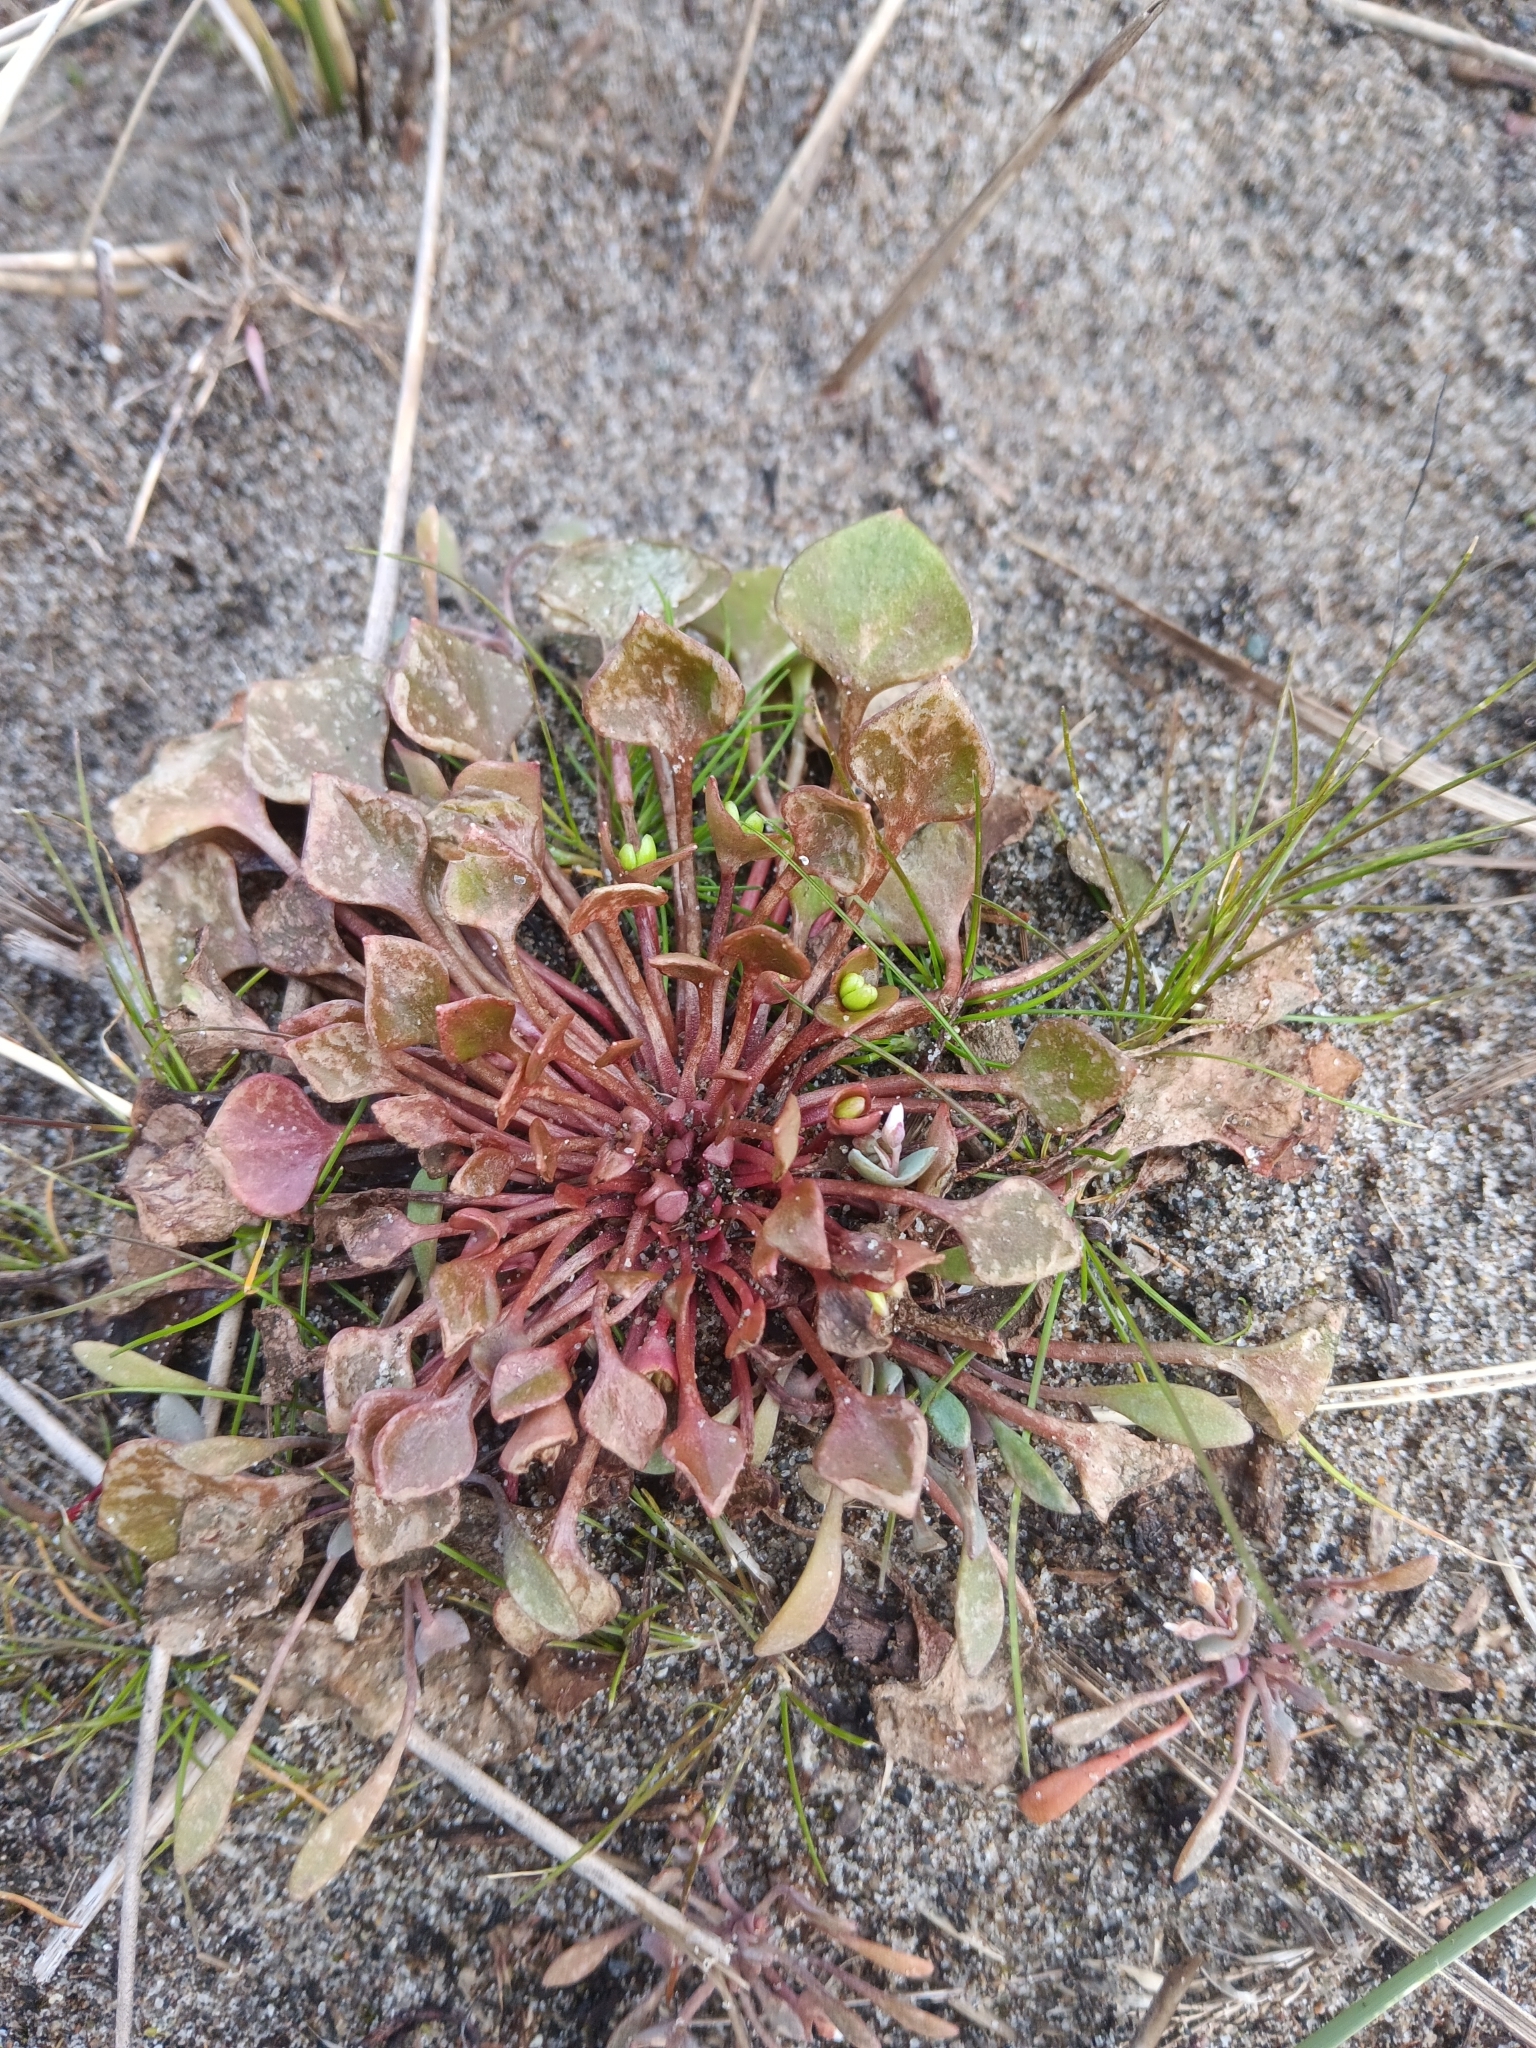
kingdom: Plantae
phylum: Tracheophyta
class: Magnoliopsida
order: Caryophyllales
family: Montiaceae
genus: Claytonia
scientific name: Claytonia rubra
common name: Erubescent miner's-lettuce
